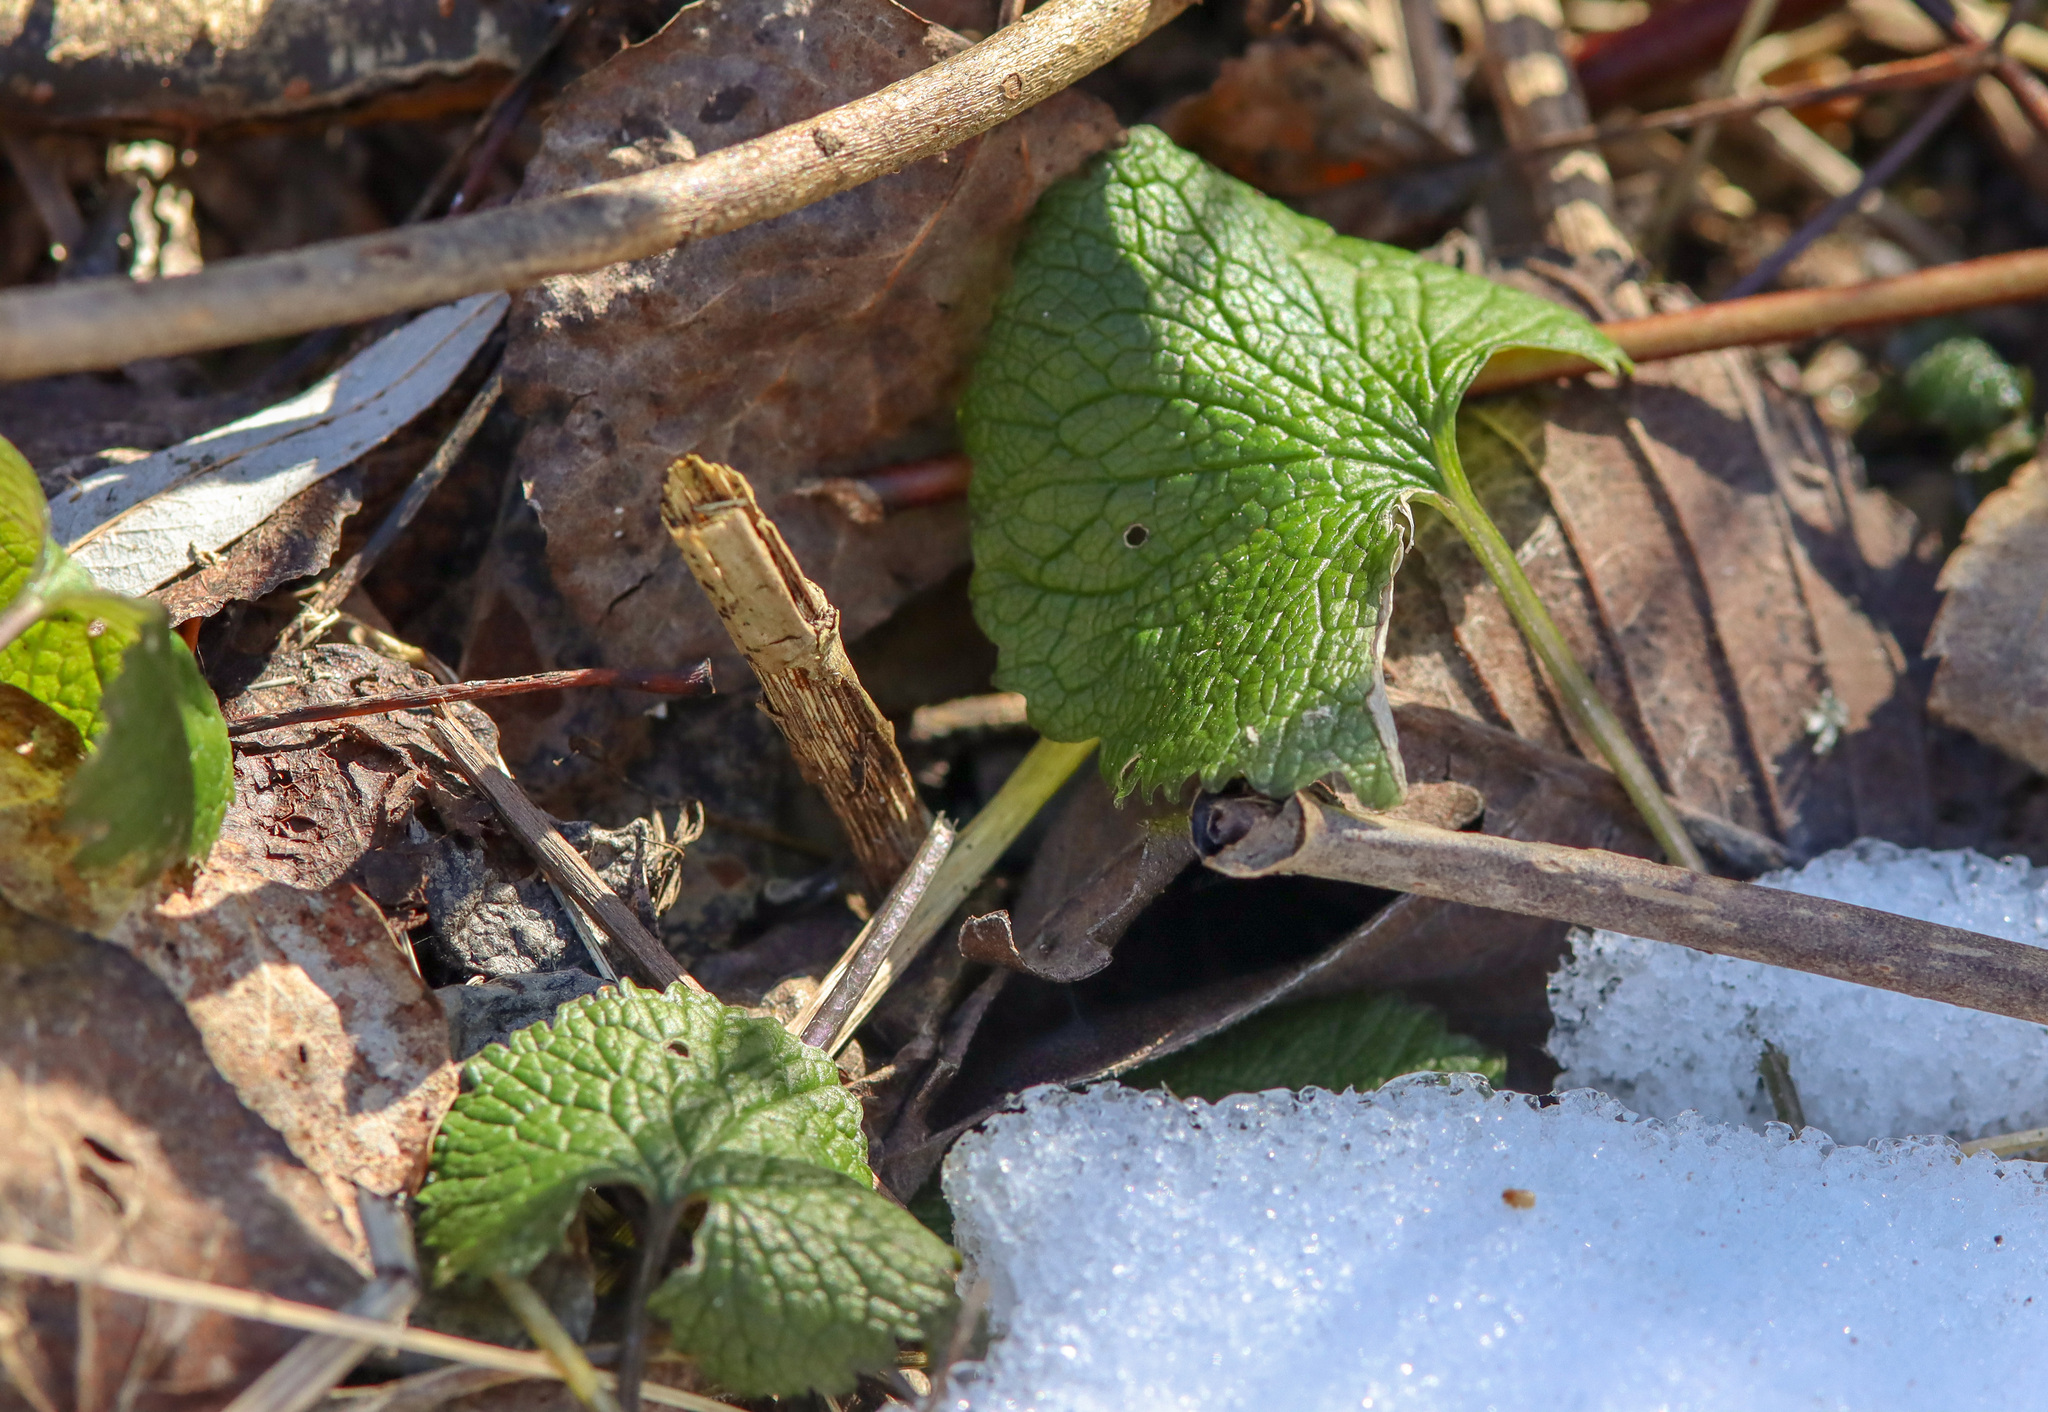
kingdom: Plantae
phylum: Tracheophyta
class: Magnoliopsida
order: Brassicales
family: Brassicaceae
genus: Alliaria
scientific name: Alliaria petiolata
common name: Garlic mustard
